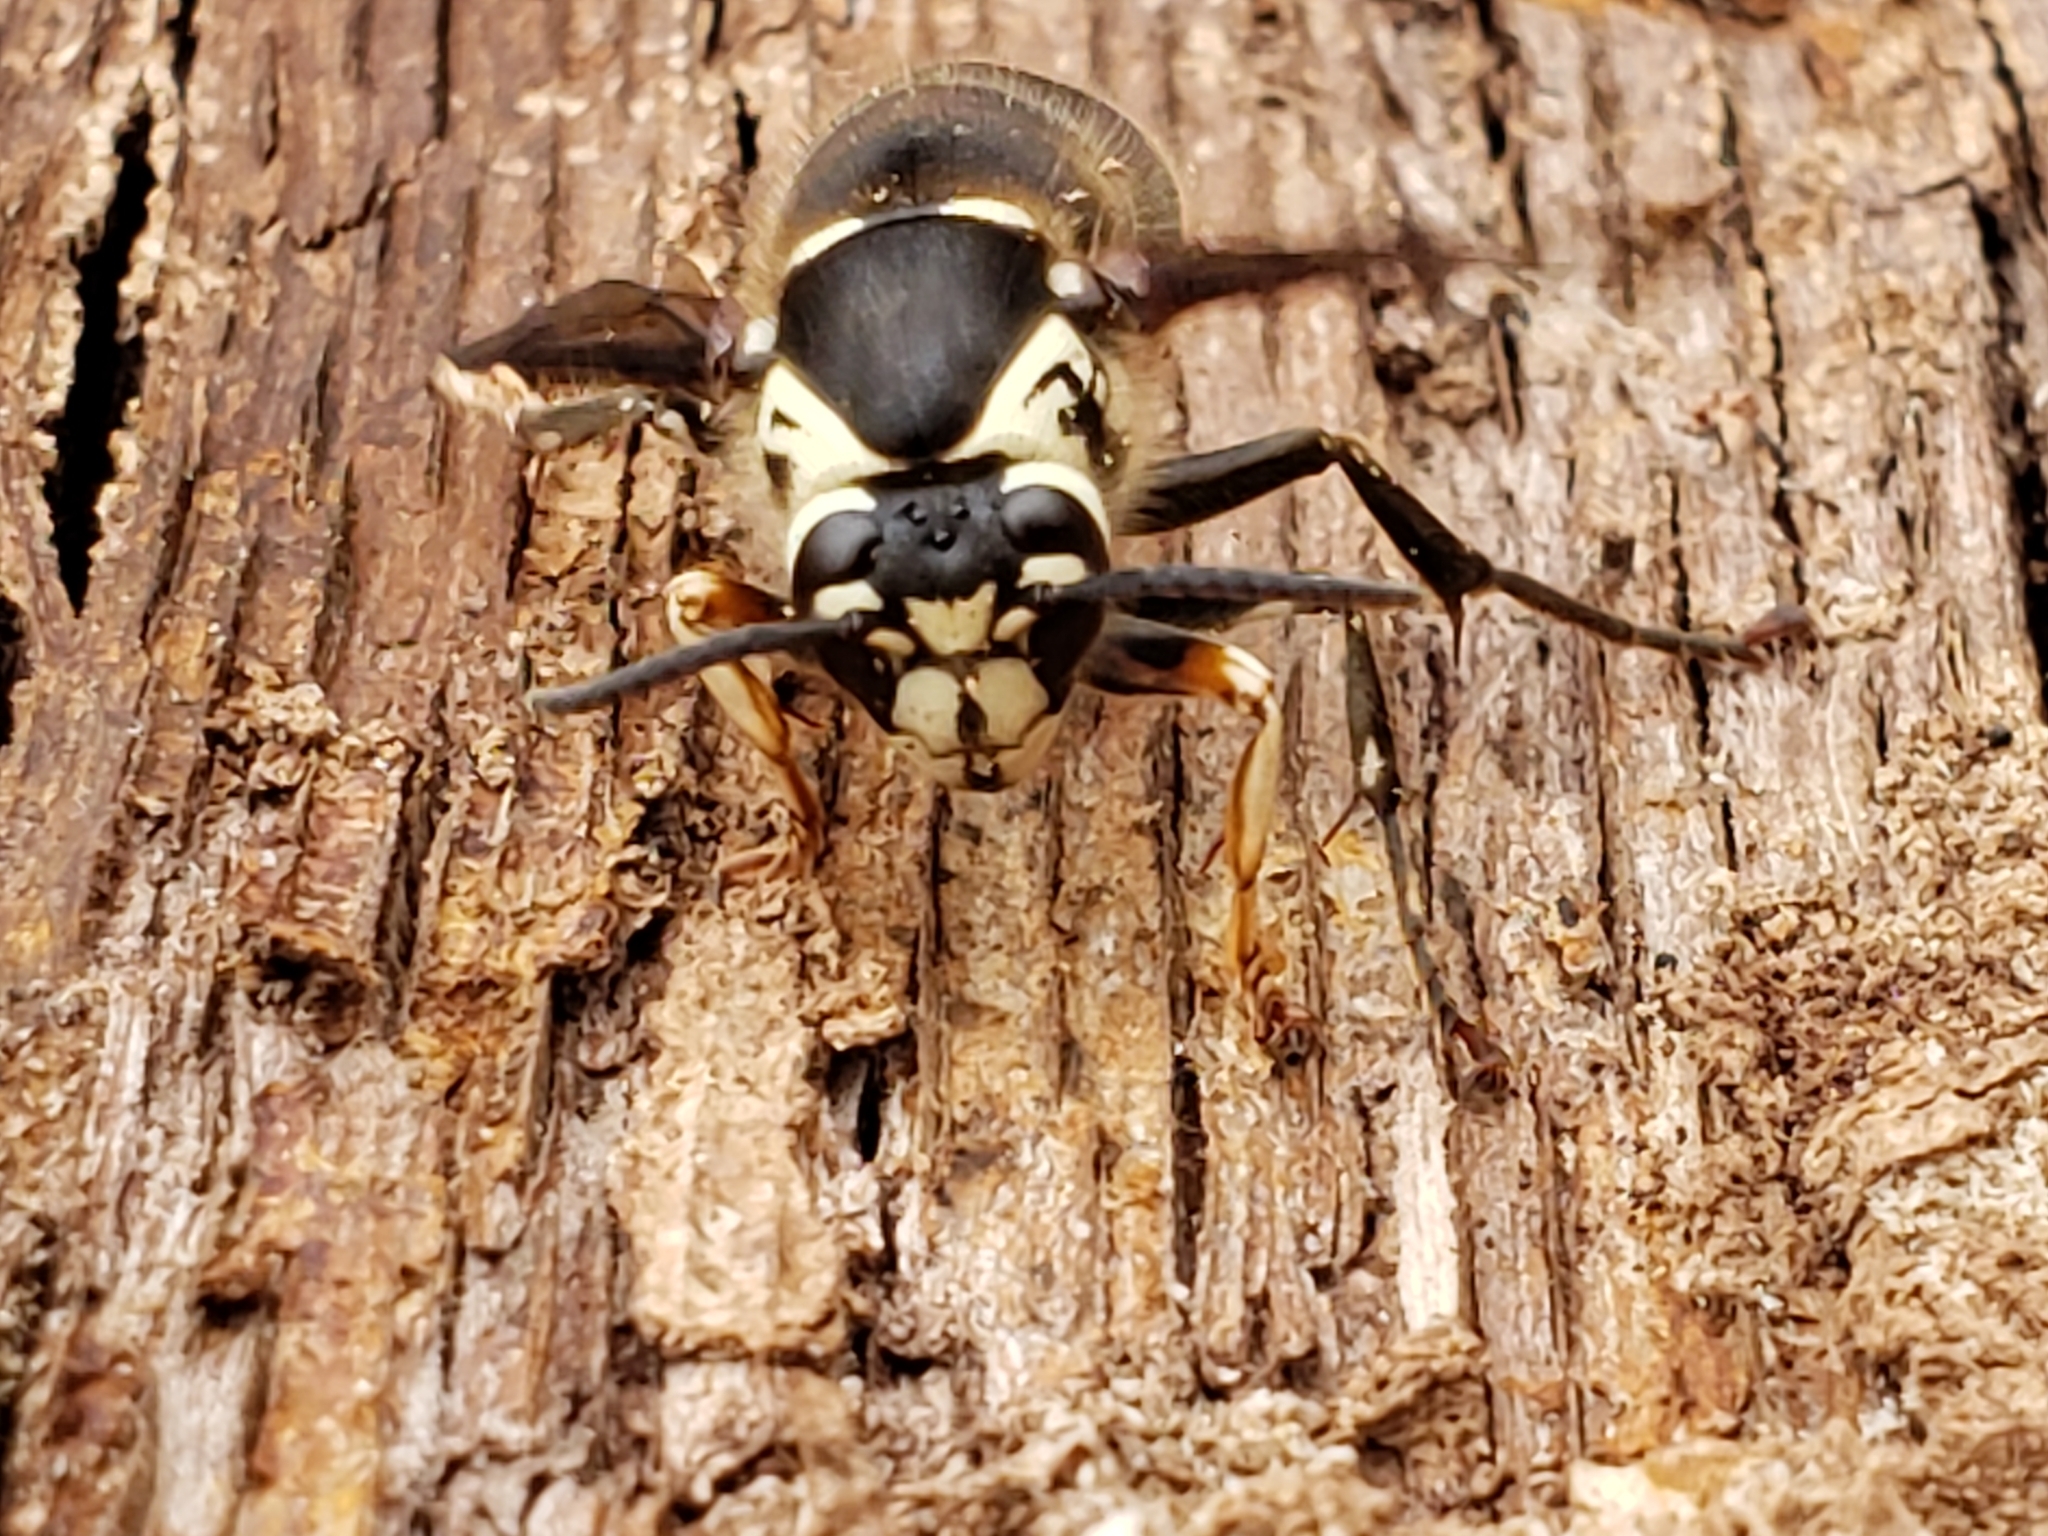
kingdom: Animalia
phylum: Arthropoda
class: Insecta
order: Hymenoptera
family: Vespidae
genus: Dolichovespula
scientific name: Dolichovespula maculata
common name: Bald-faced hornet
